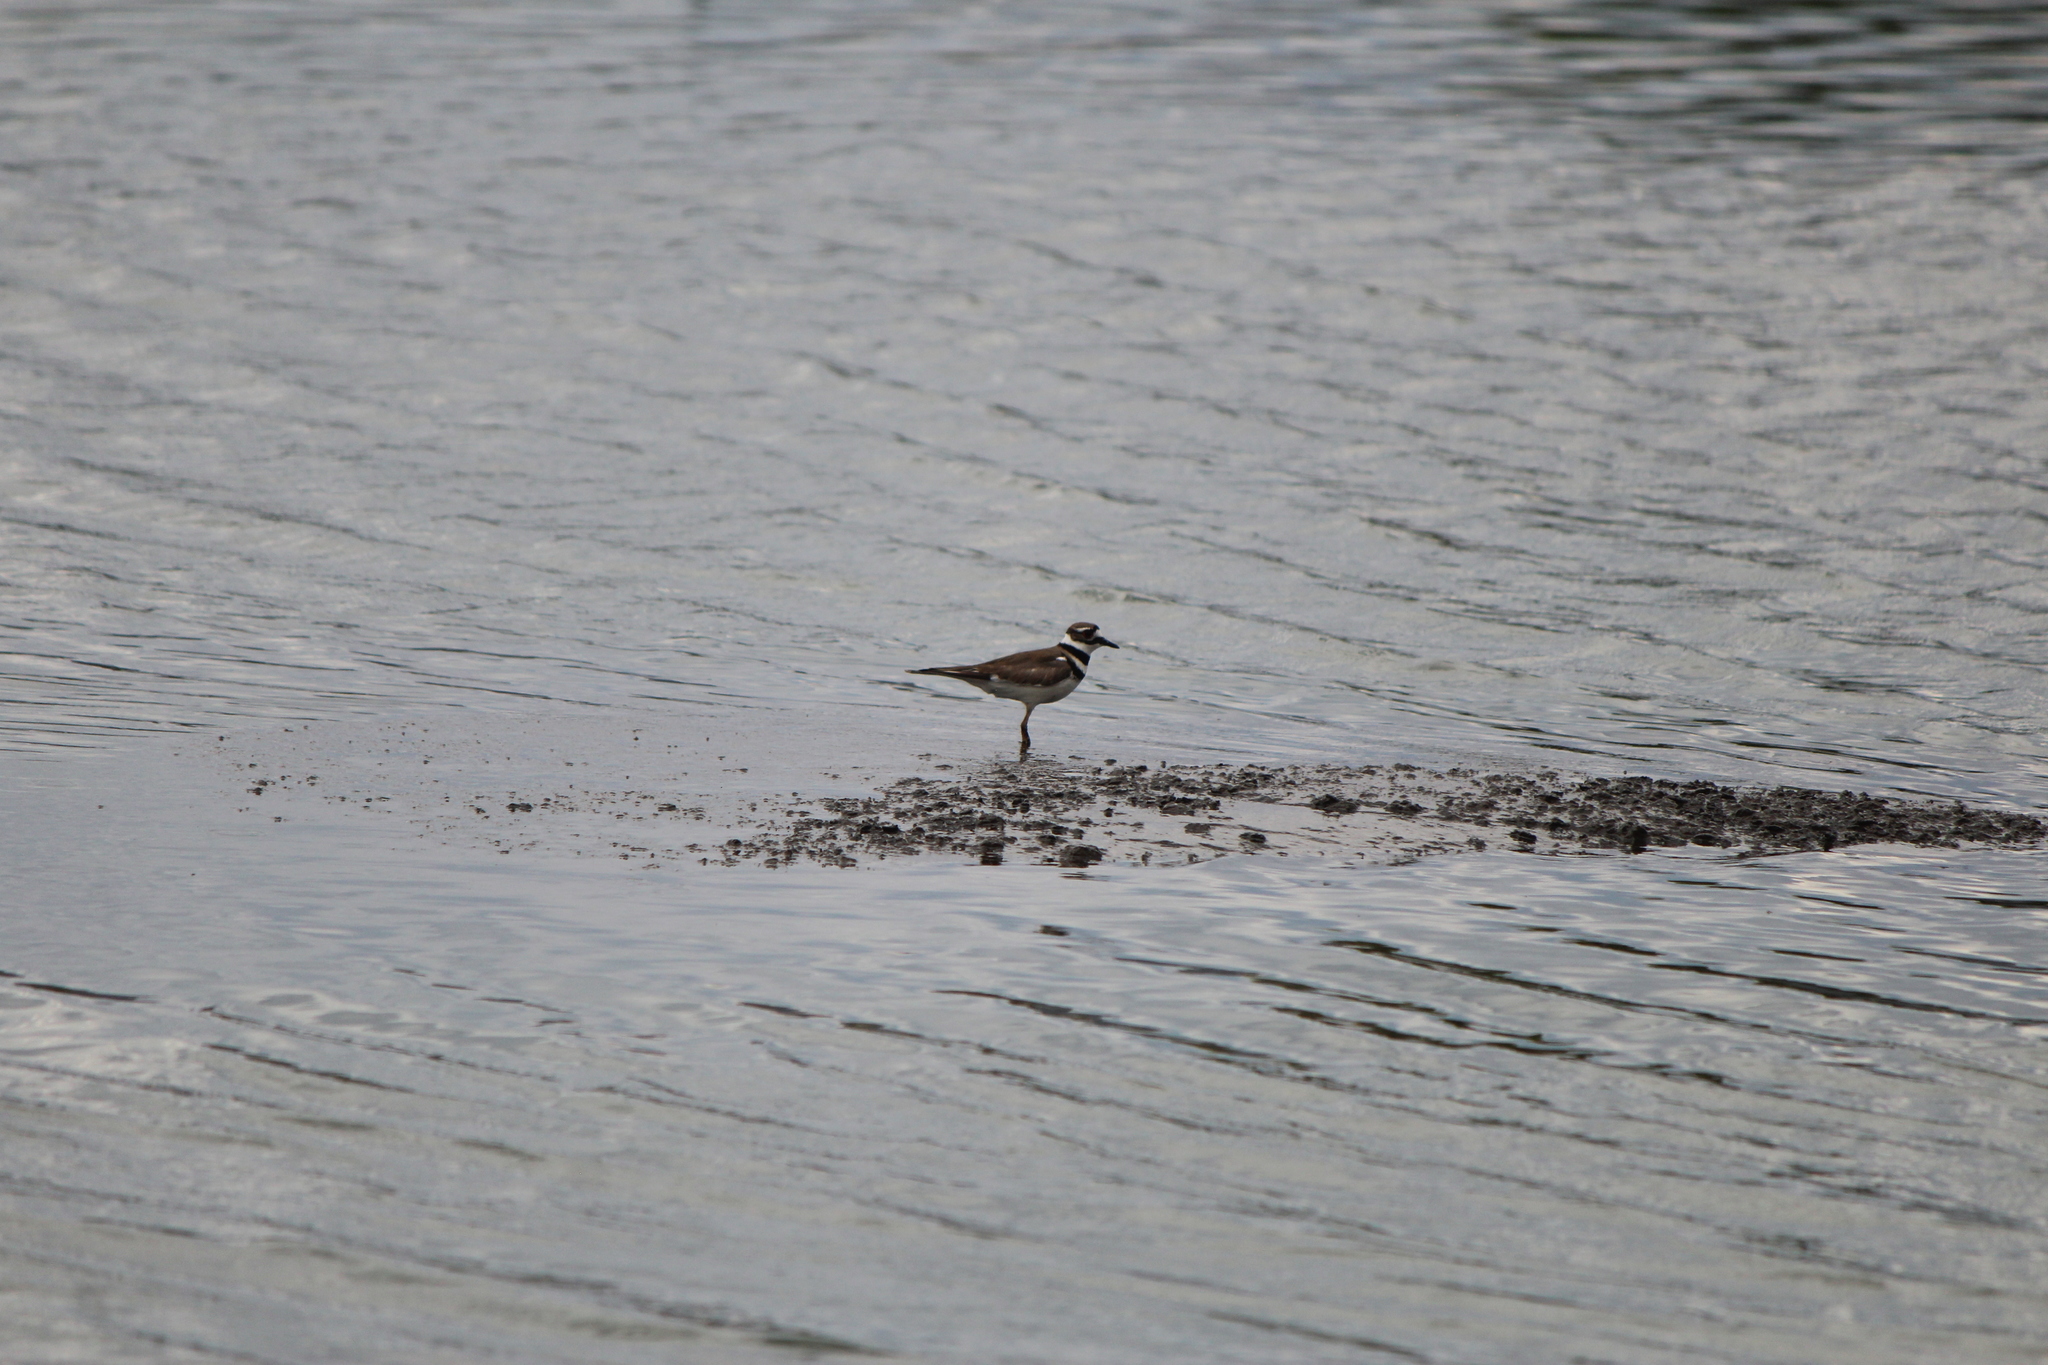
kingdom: Animalia
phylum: Chordata
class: Aves
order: Charadriiformes
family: Charadriidae
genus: Charadrius
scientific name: Charadrius vociferus
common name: Killdeer
